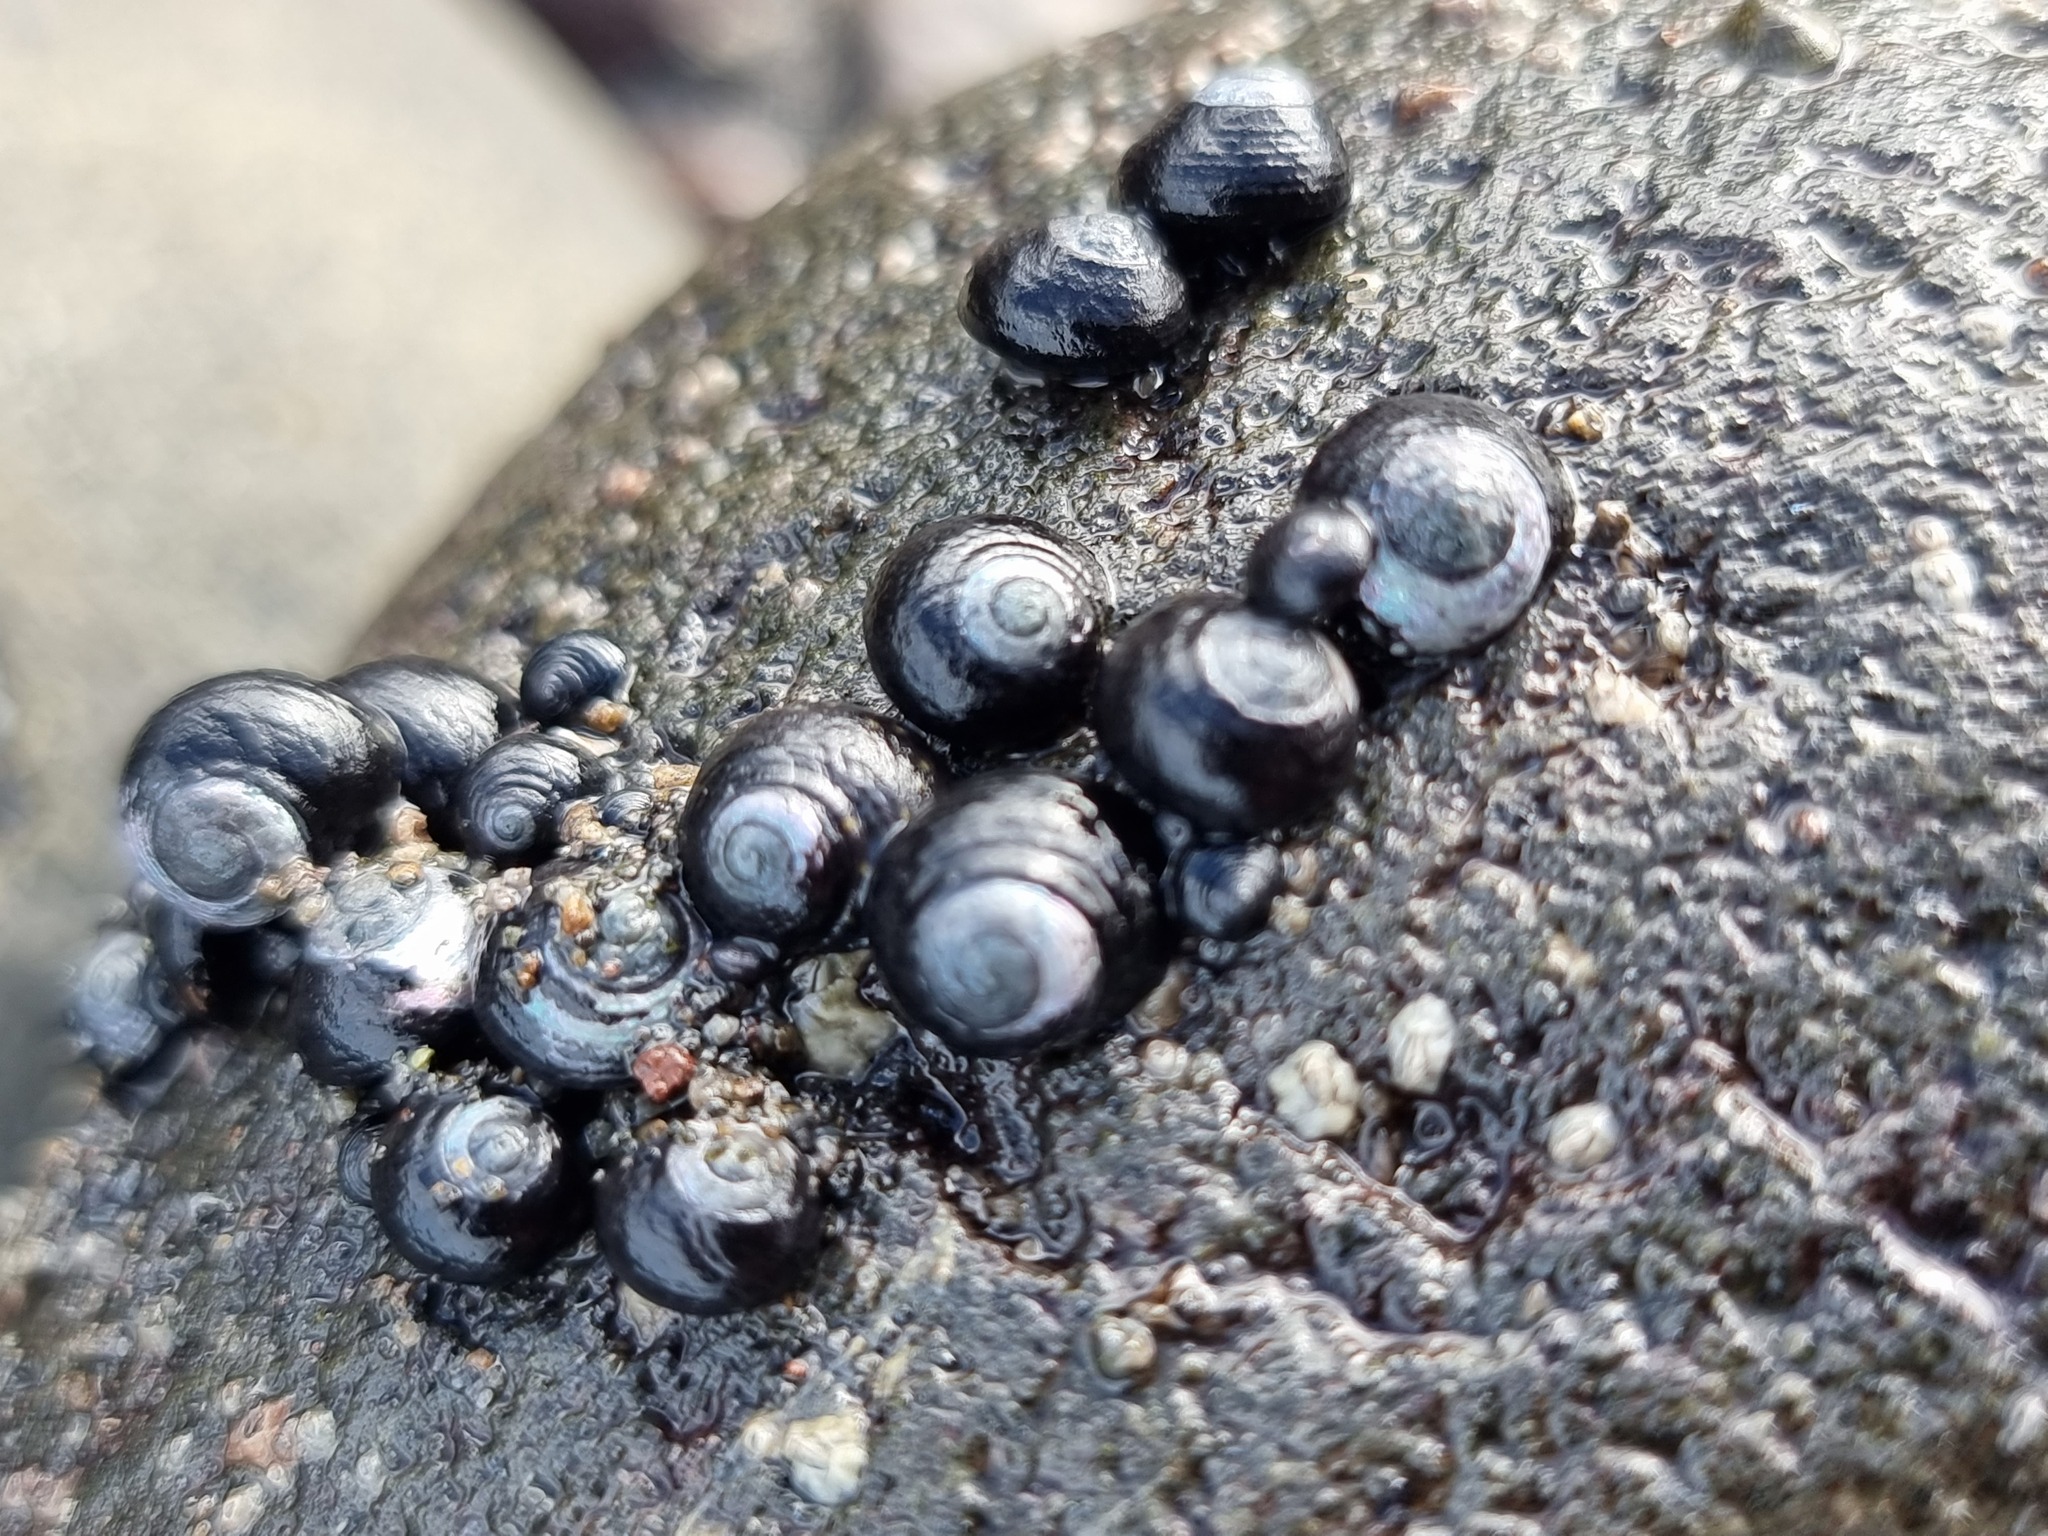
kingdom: Animalia
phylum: Mollusca
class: Gastropoda
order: Trochida
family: Trochidae
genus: Diloma
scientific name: Diloma zelandicum
